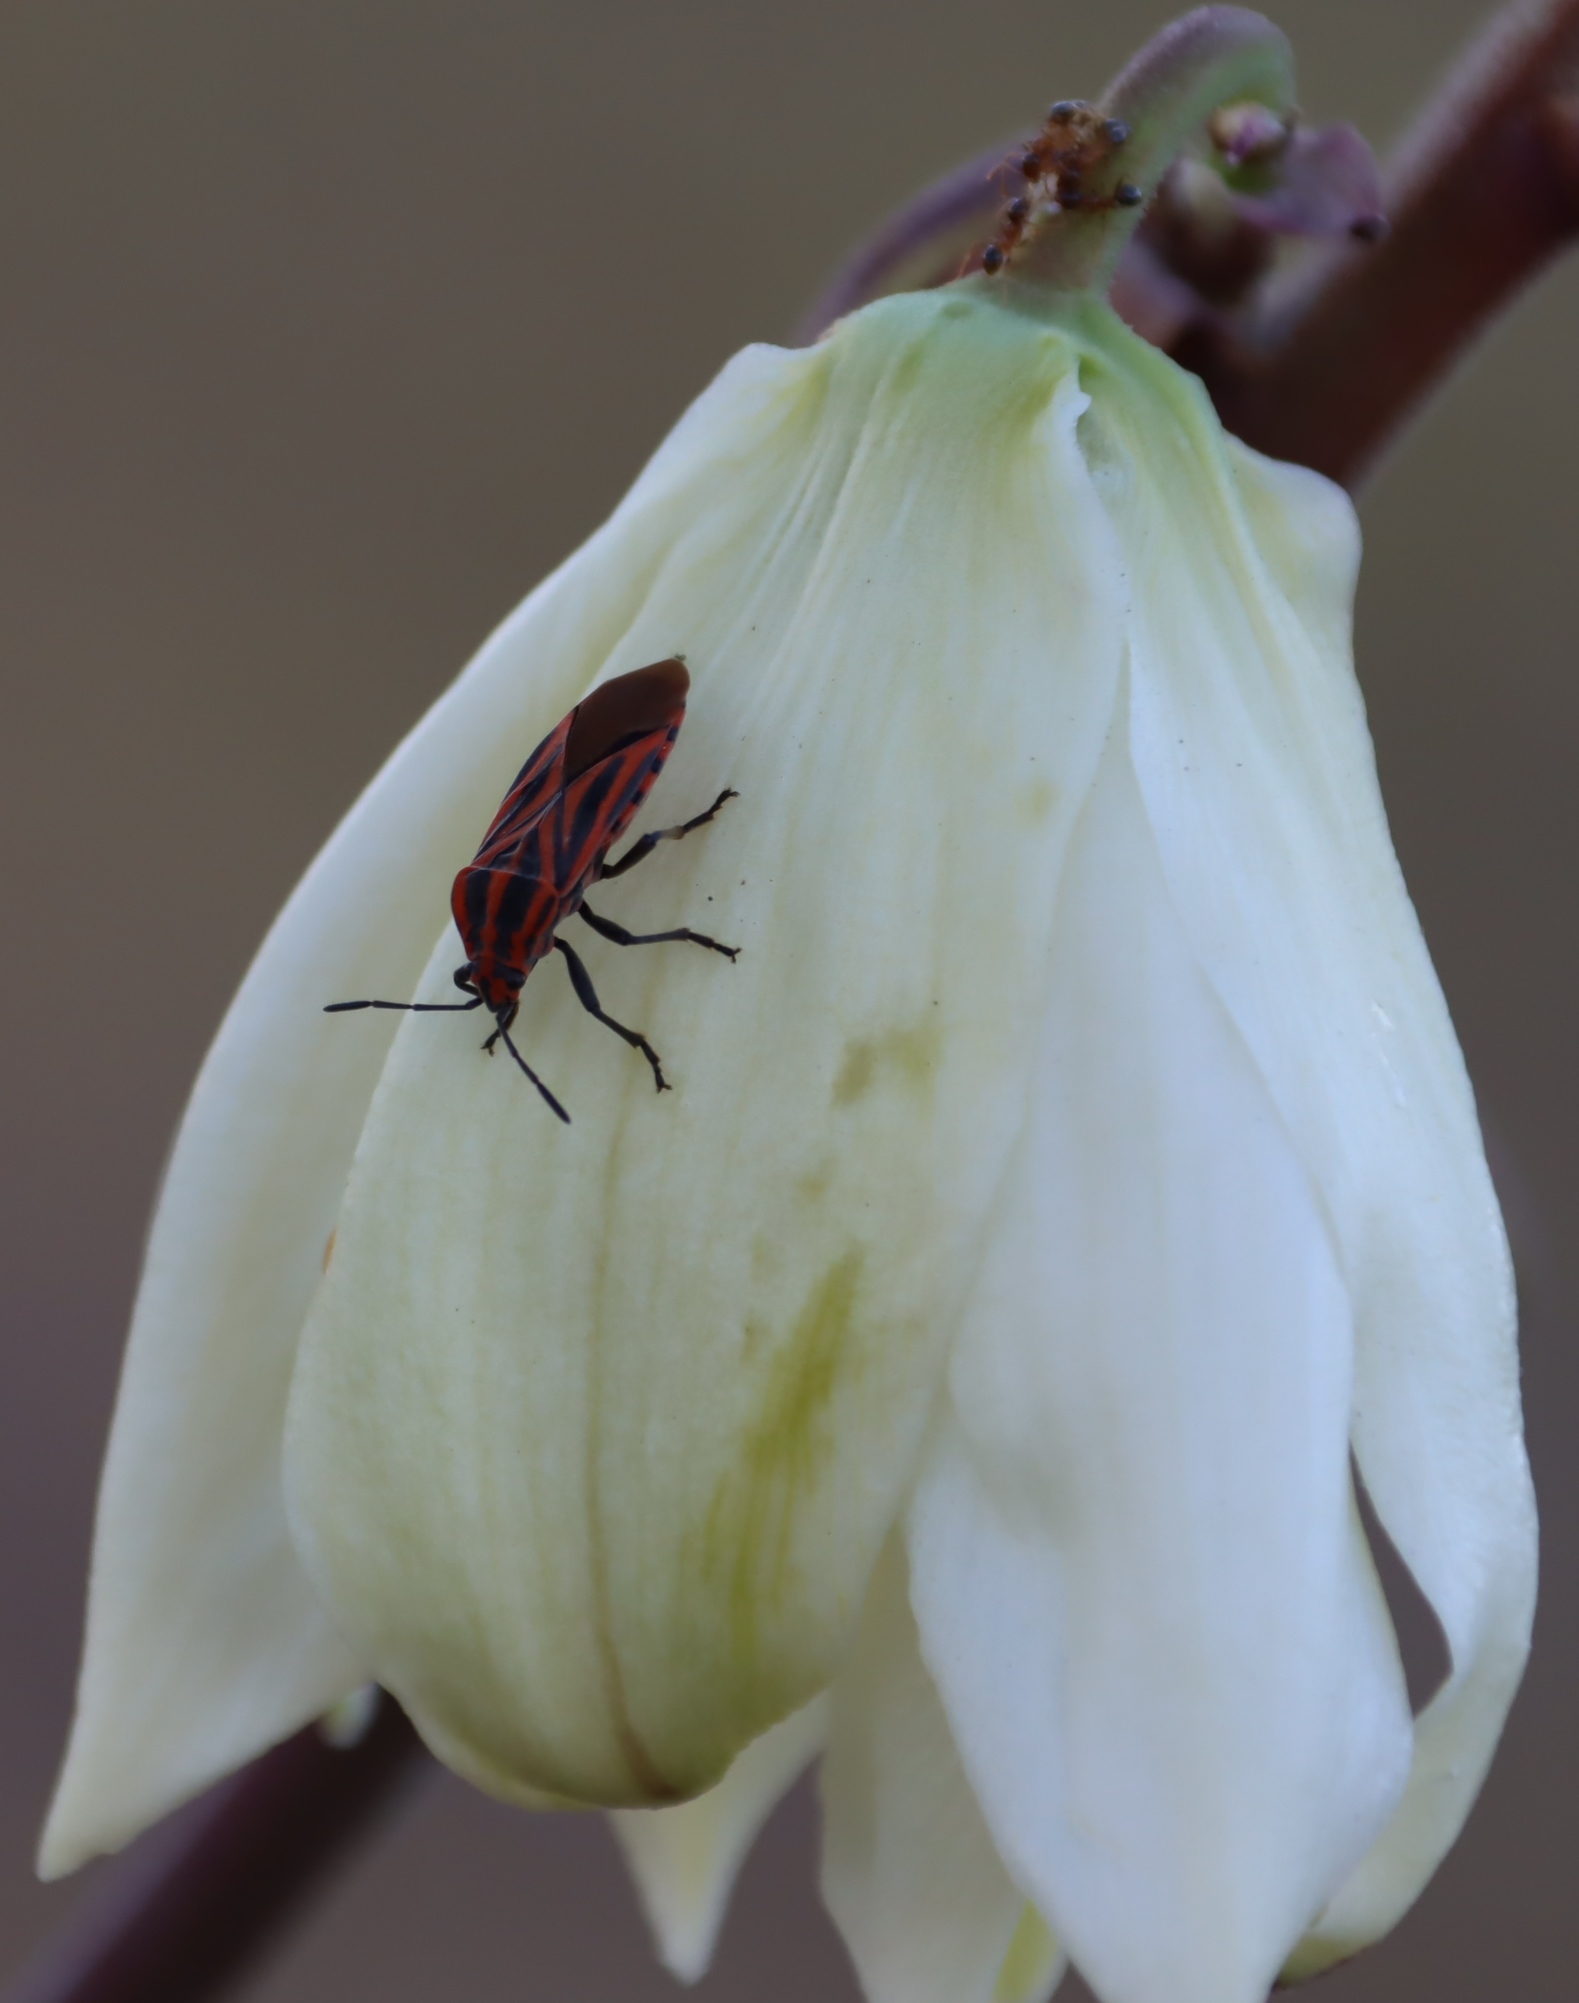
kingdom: Animalia
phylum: Arthropoda
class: Insecta
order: Hemiptera
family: Lygaeidae
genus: Spilostethus
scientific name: Spilostethus taeniatus
